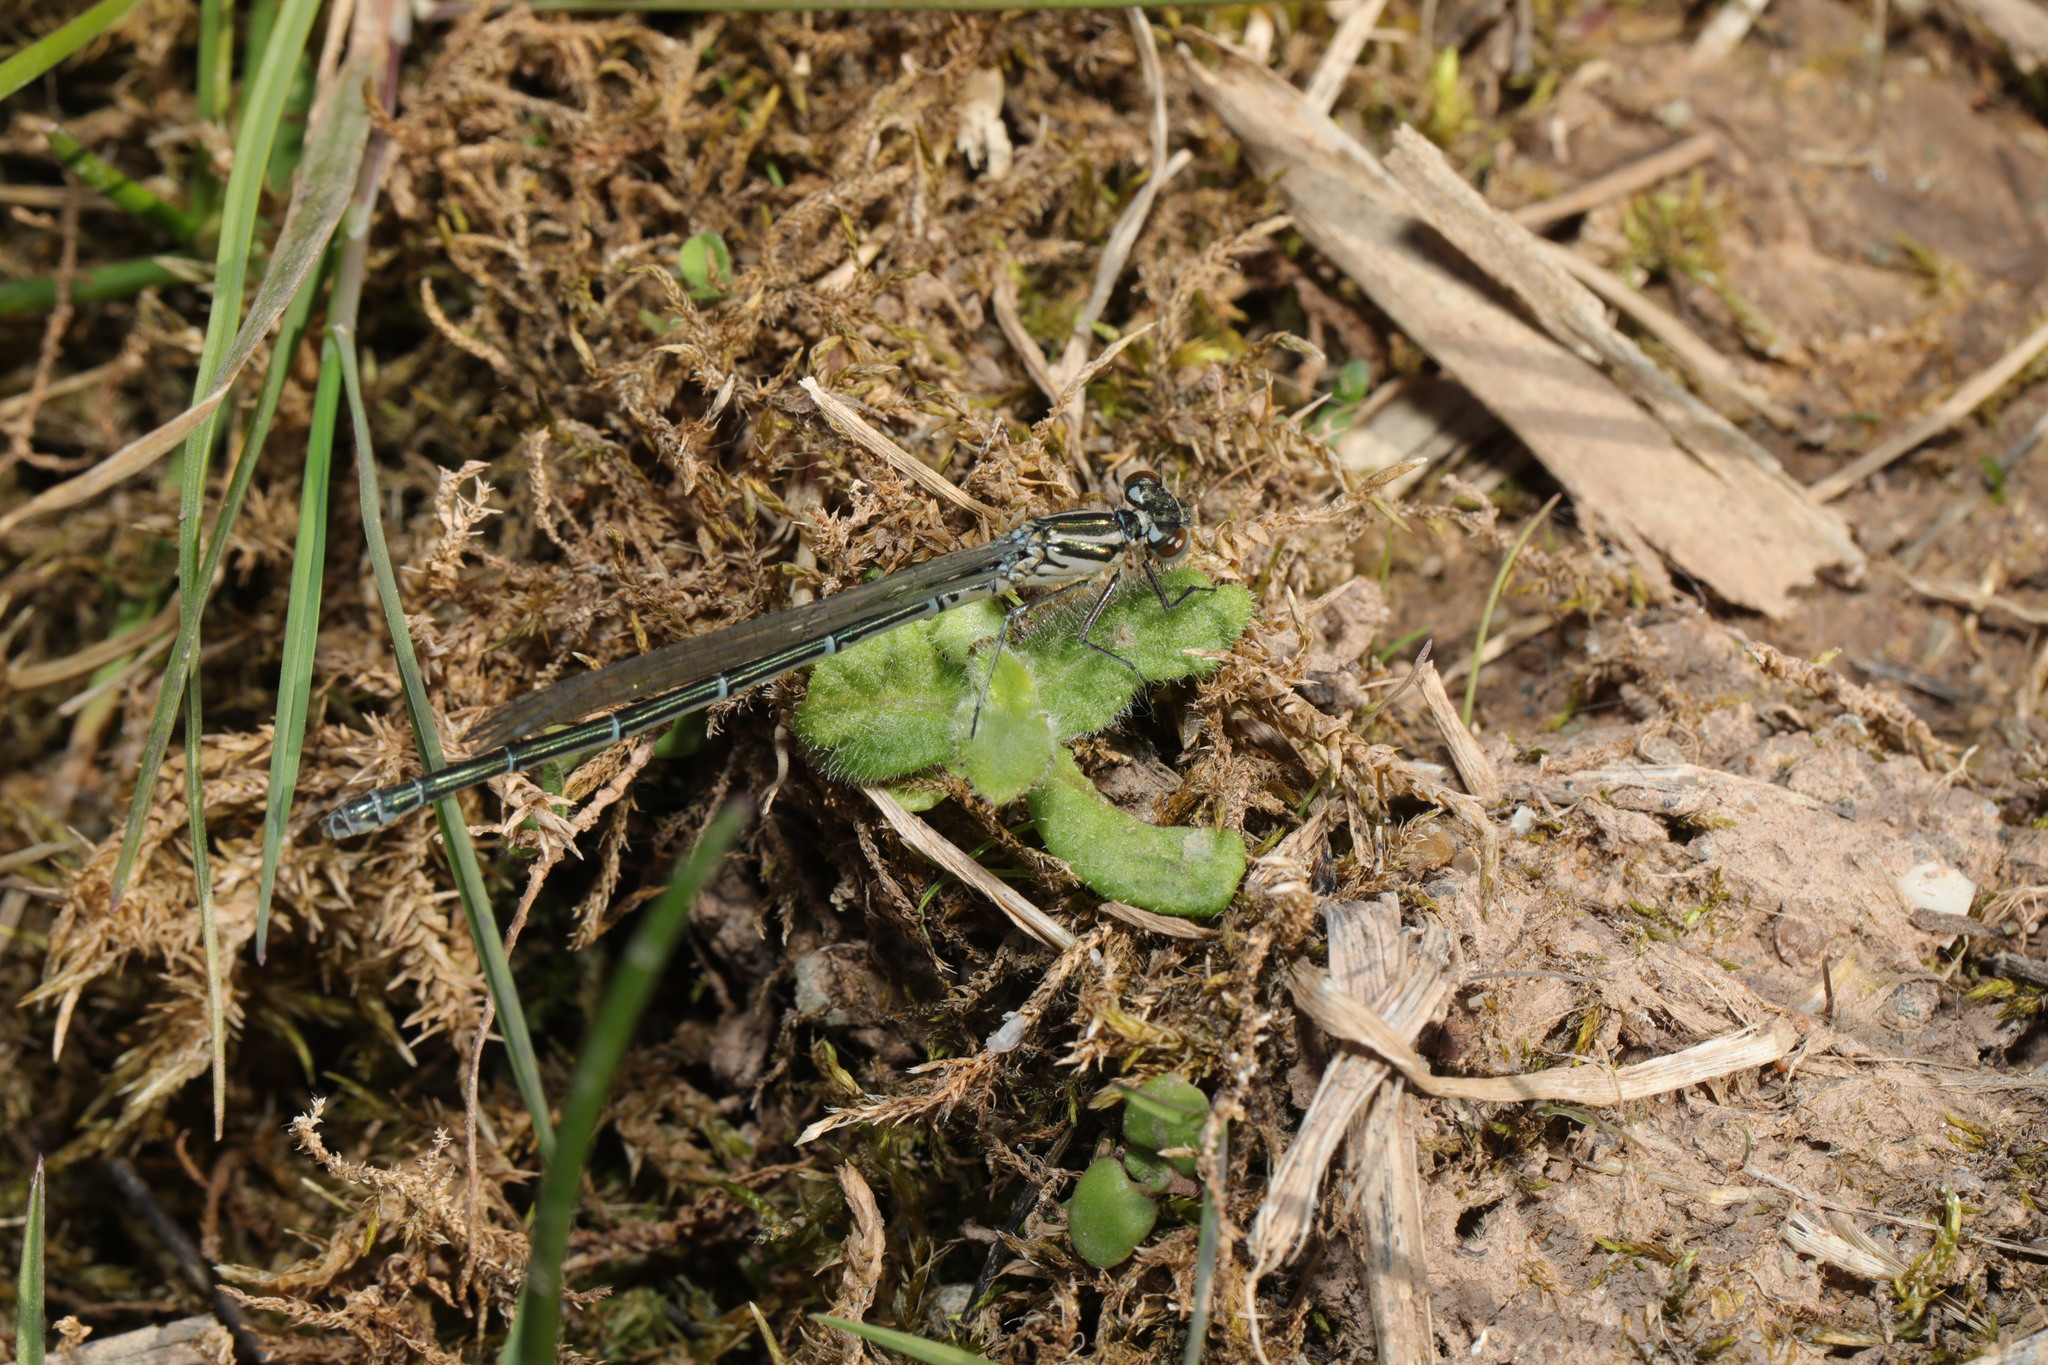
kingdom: Animalia
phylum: Arthropoda
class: Insecta
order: Odonata
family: Coenagrionidae
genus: Coenagrion
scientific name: Coenagrion puella
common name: Azure damselfly
